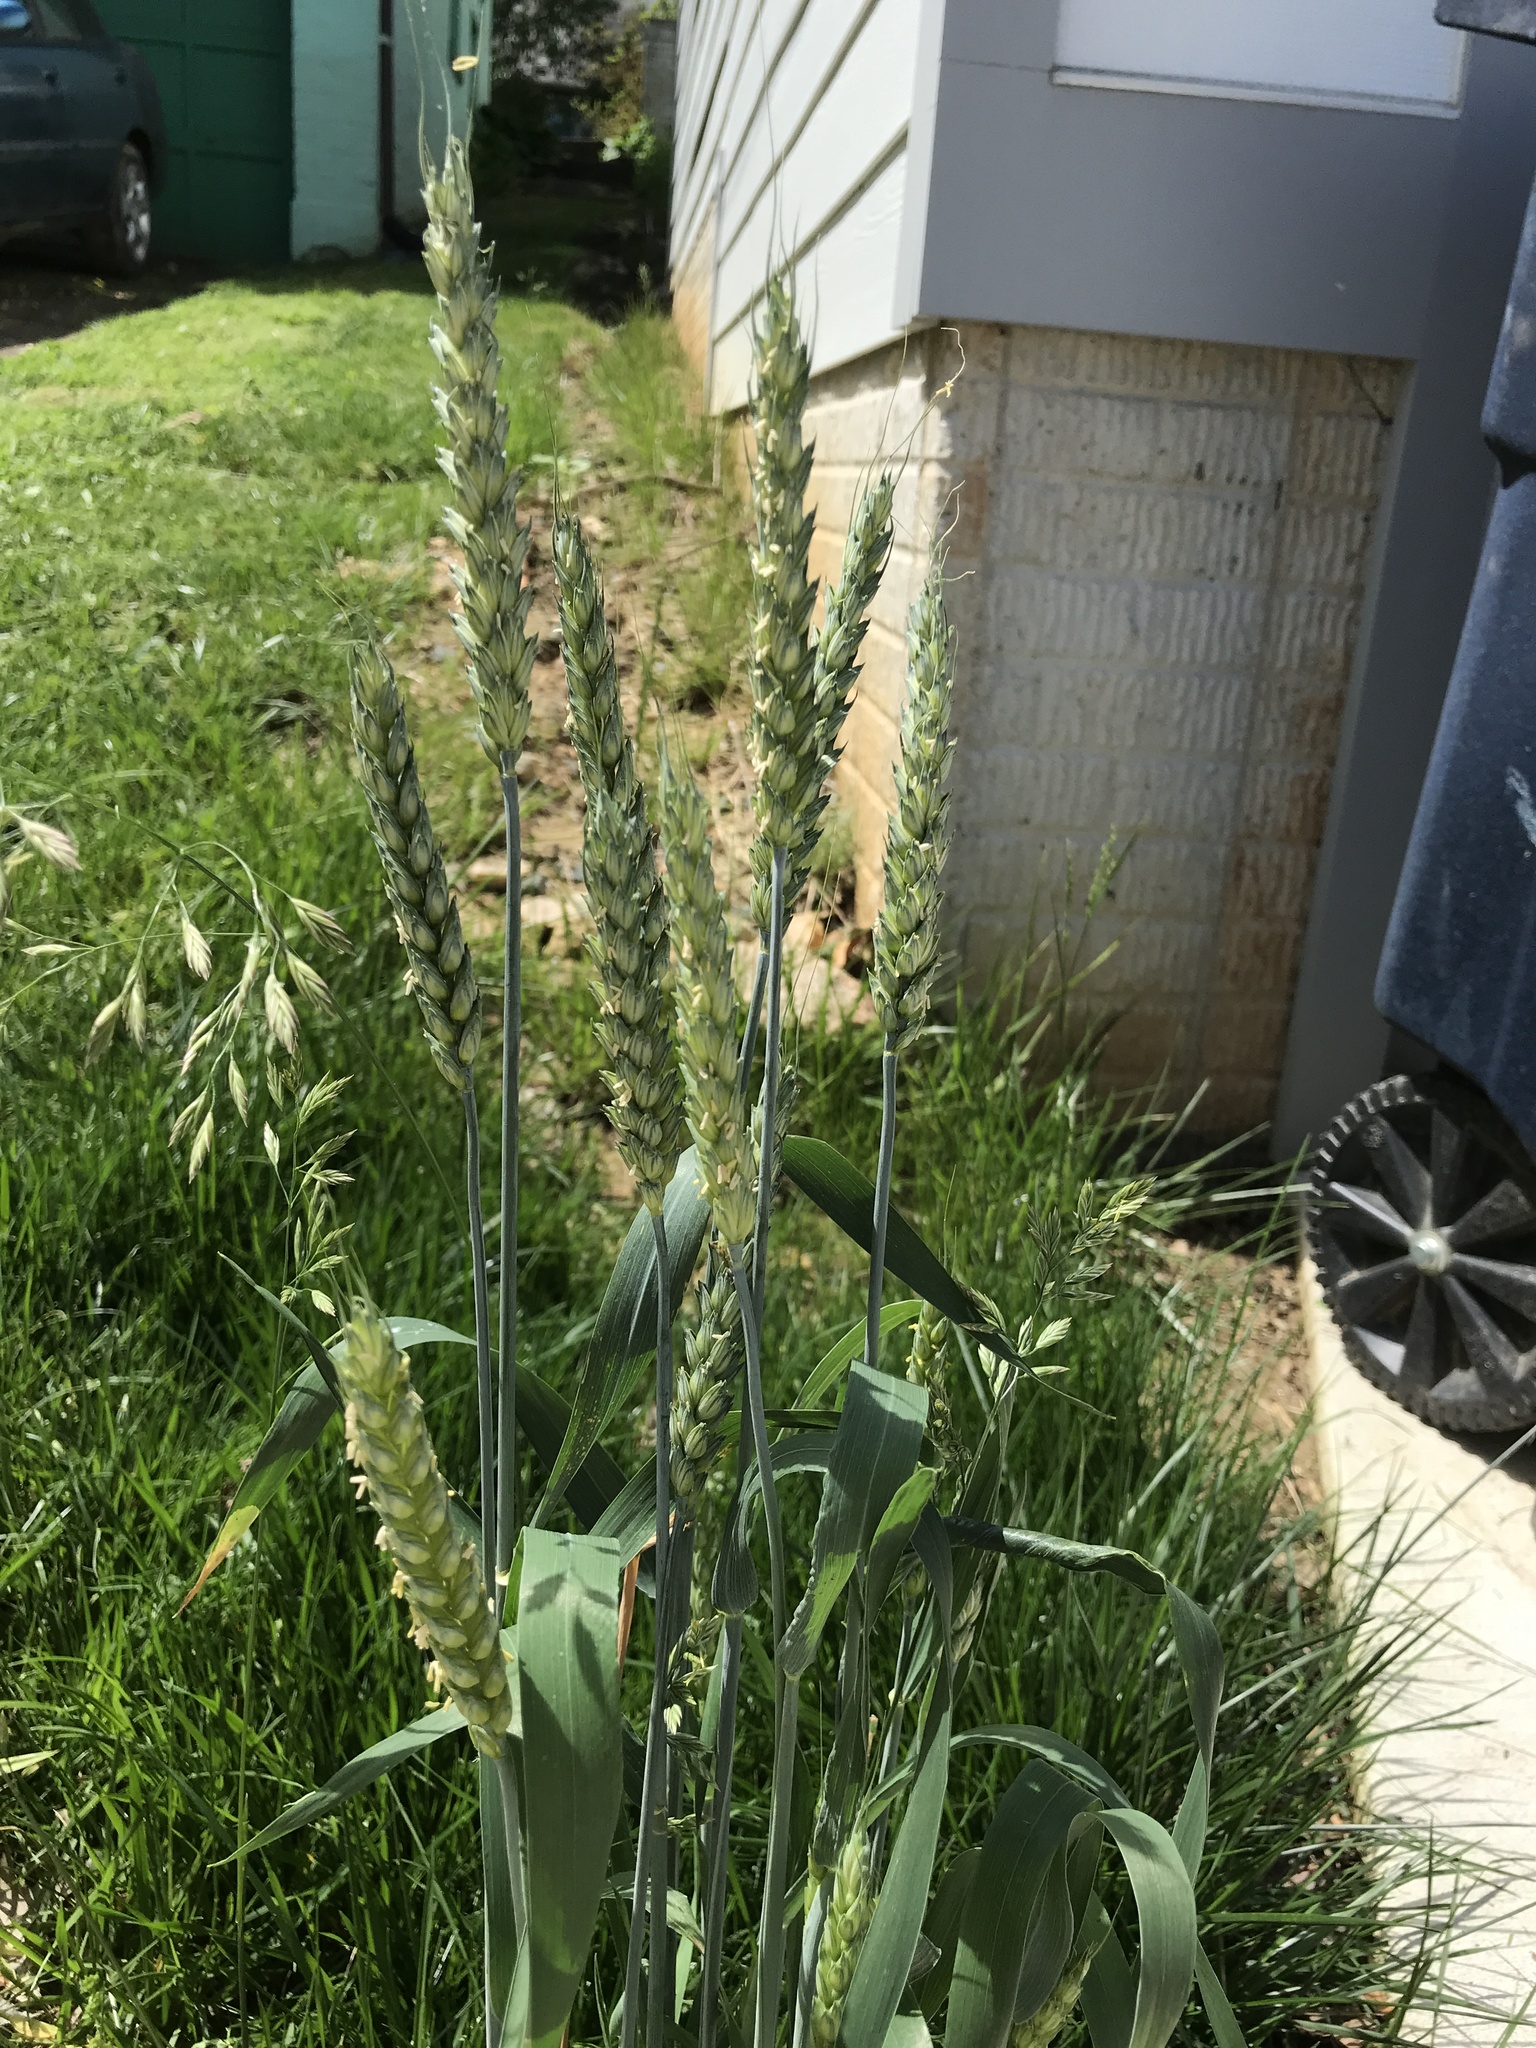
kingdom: Plantae
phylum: Tracheophyta
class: Liliopsida
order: Poales
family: Poaceae
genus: Triticum
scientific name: Triticum aestivum
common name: Common wheat
